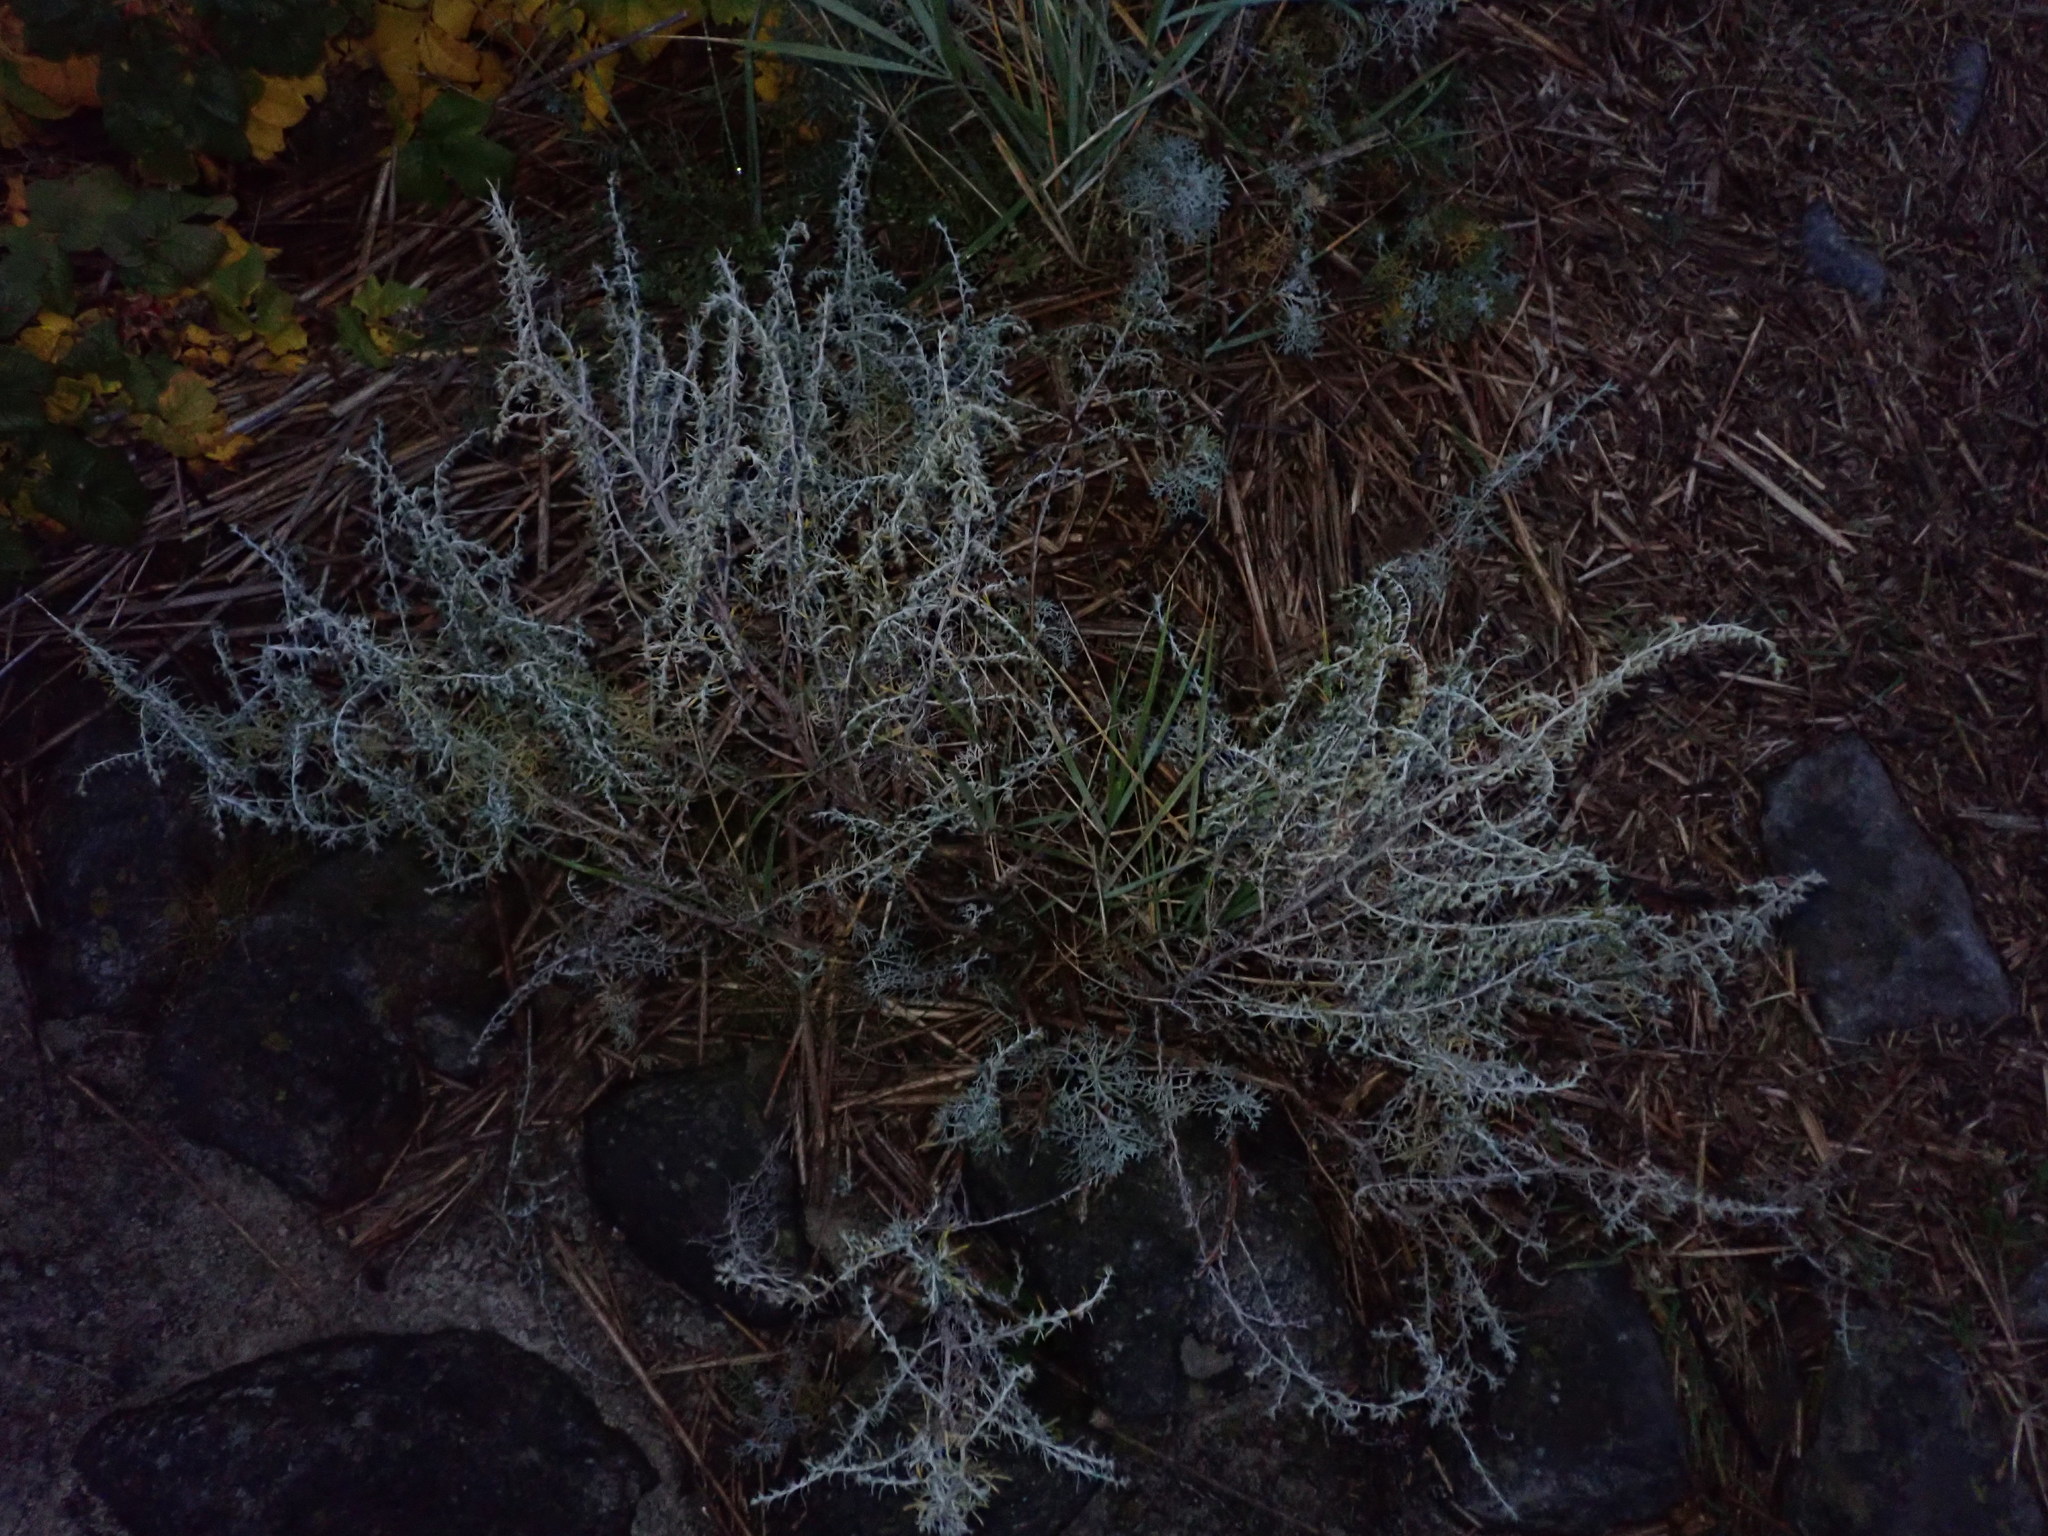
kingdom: Plantae
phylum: Tracheophyta
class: Magnoliopsida
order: Asterales
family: Asteraceae
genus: Artemisia
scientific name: Artemisia maritima
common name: Wormseed
